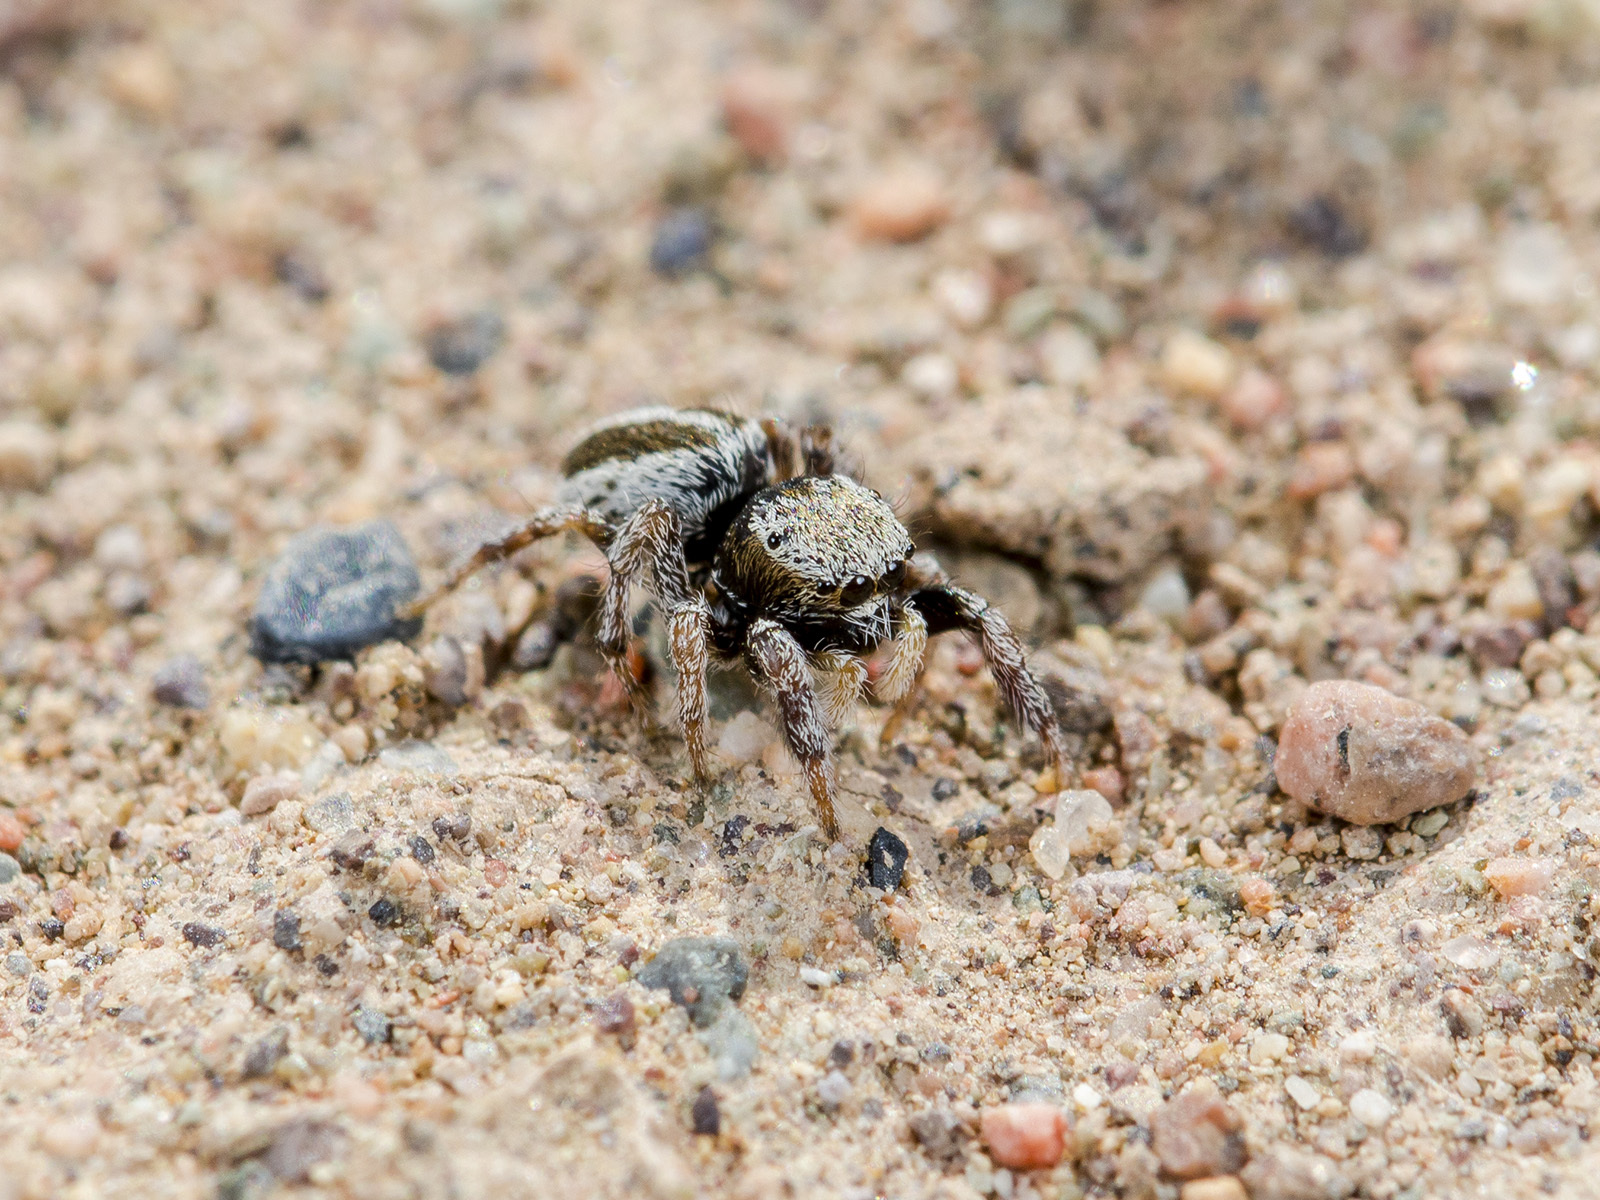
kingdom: Animalia
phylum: Arthropoda
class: Arachnida
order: Araneae
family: Salticidae
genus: Pellenes
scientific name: Pellenes epularis
